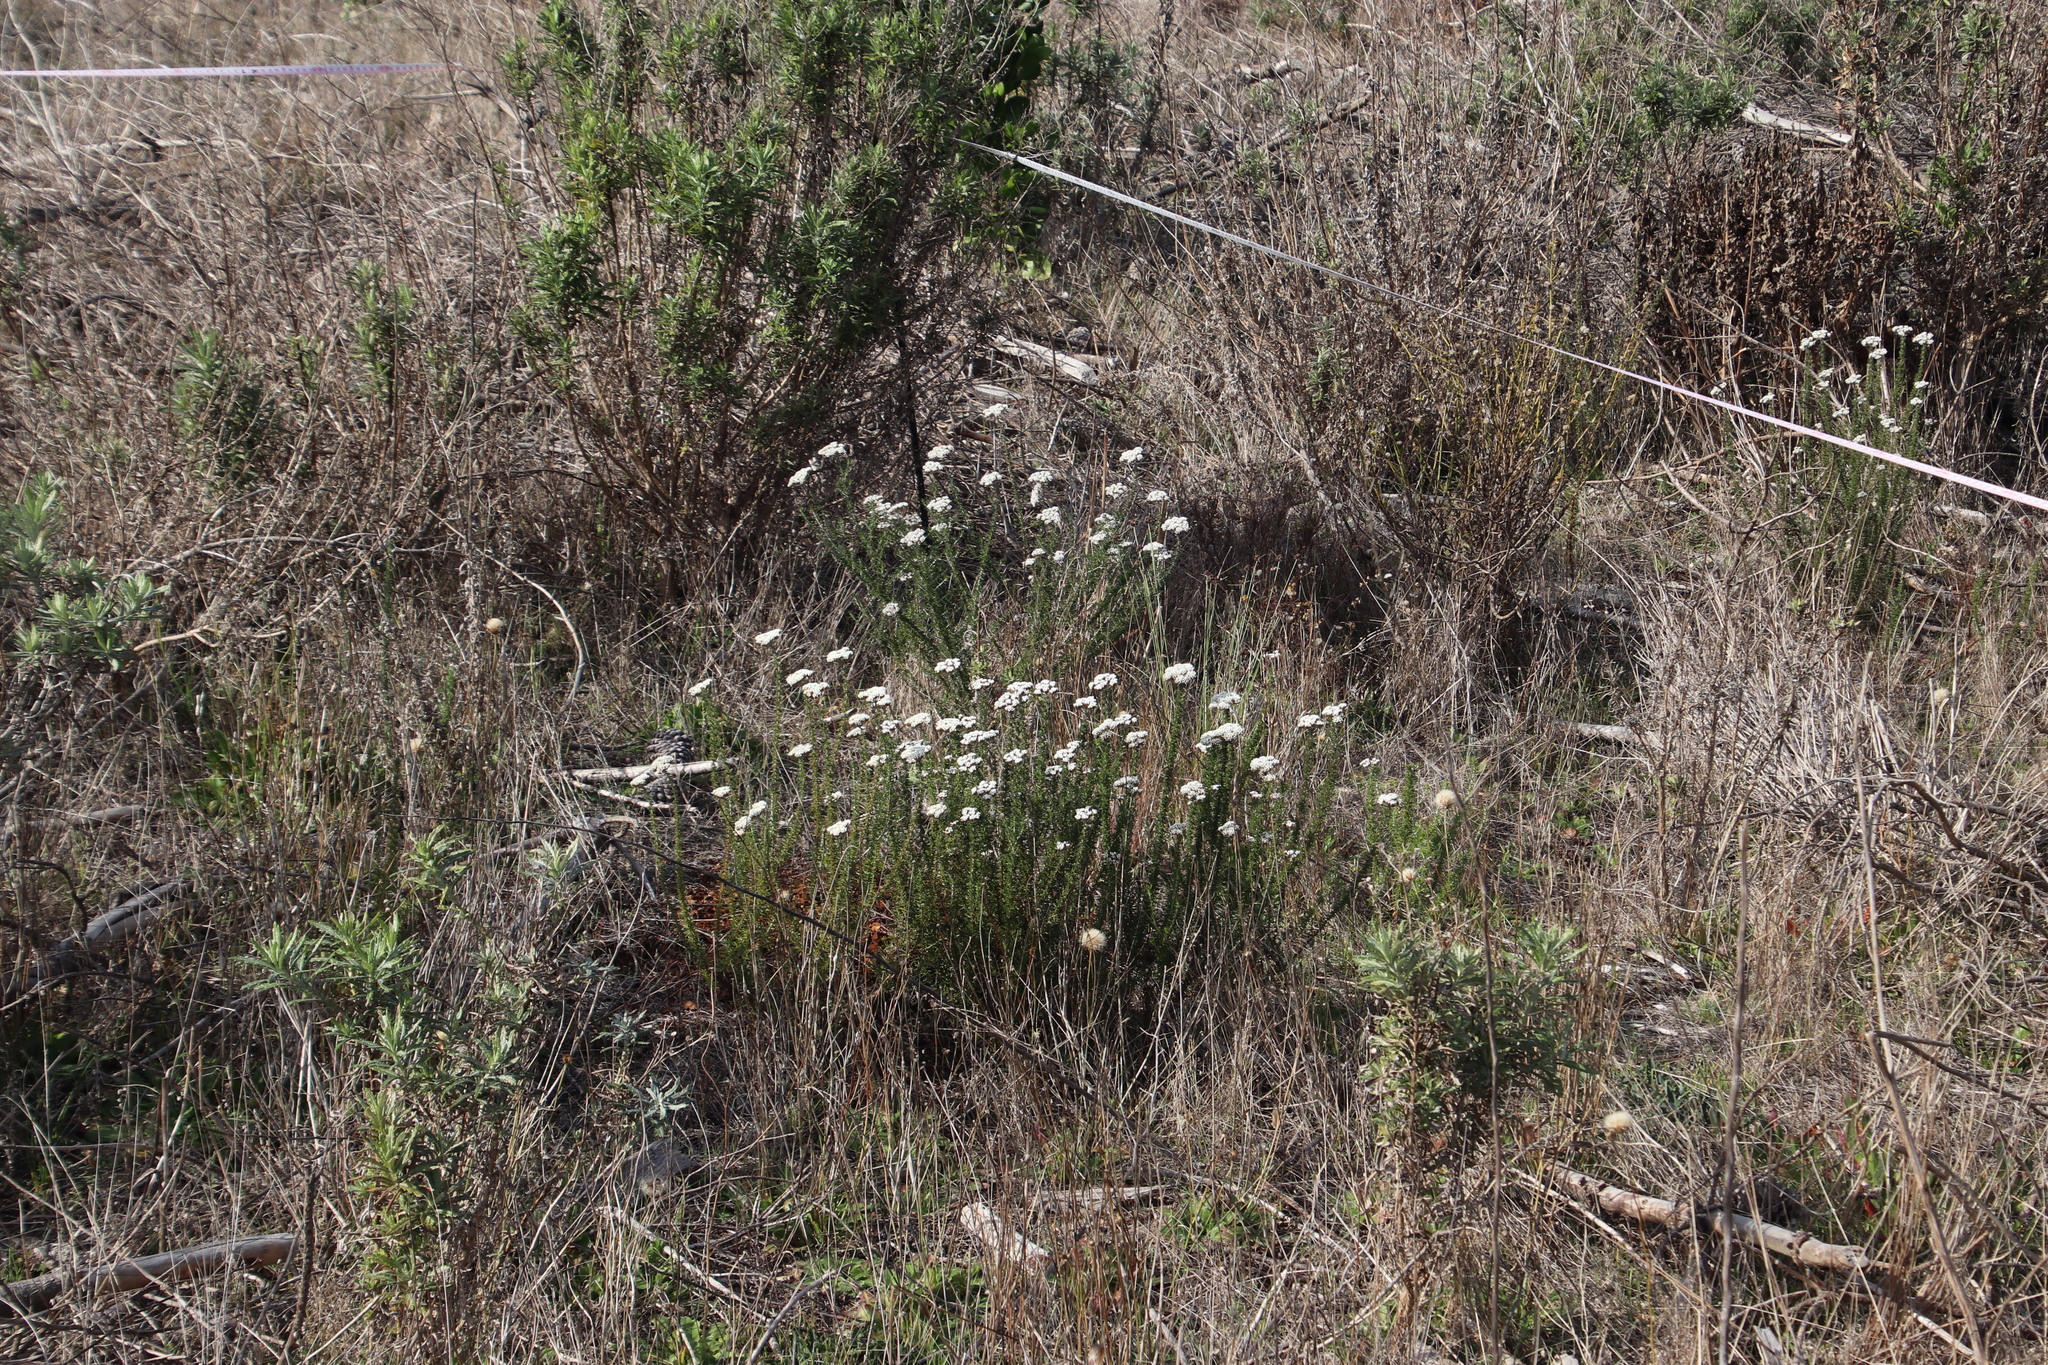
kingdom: Plantae
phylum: Tracheophyta
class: Magnoliopsida
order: Asterales
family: Asteraceae
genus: Metalasia
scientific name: Metalasia densa
